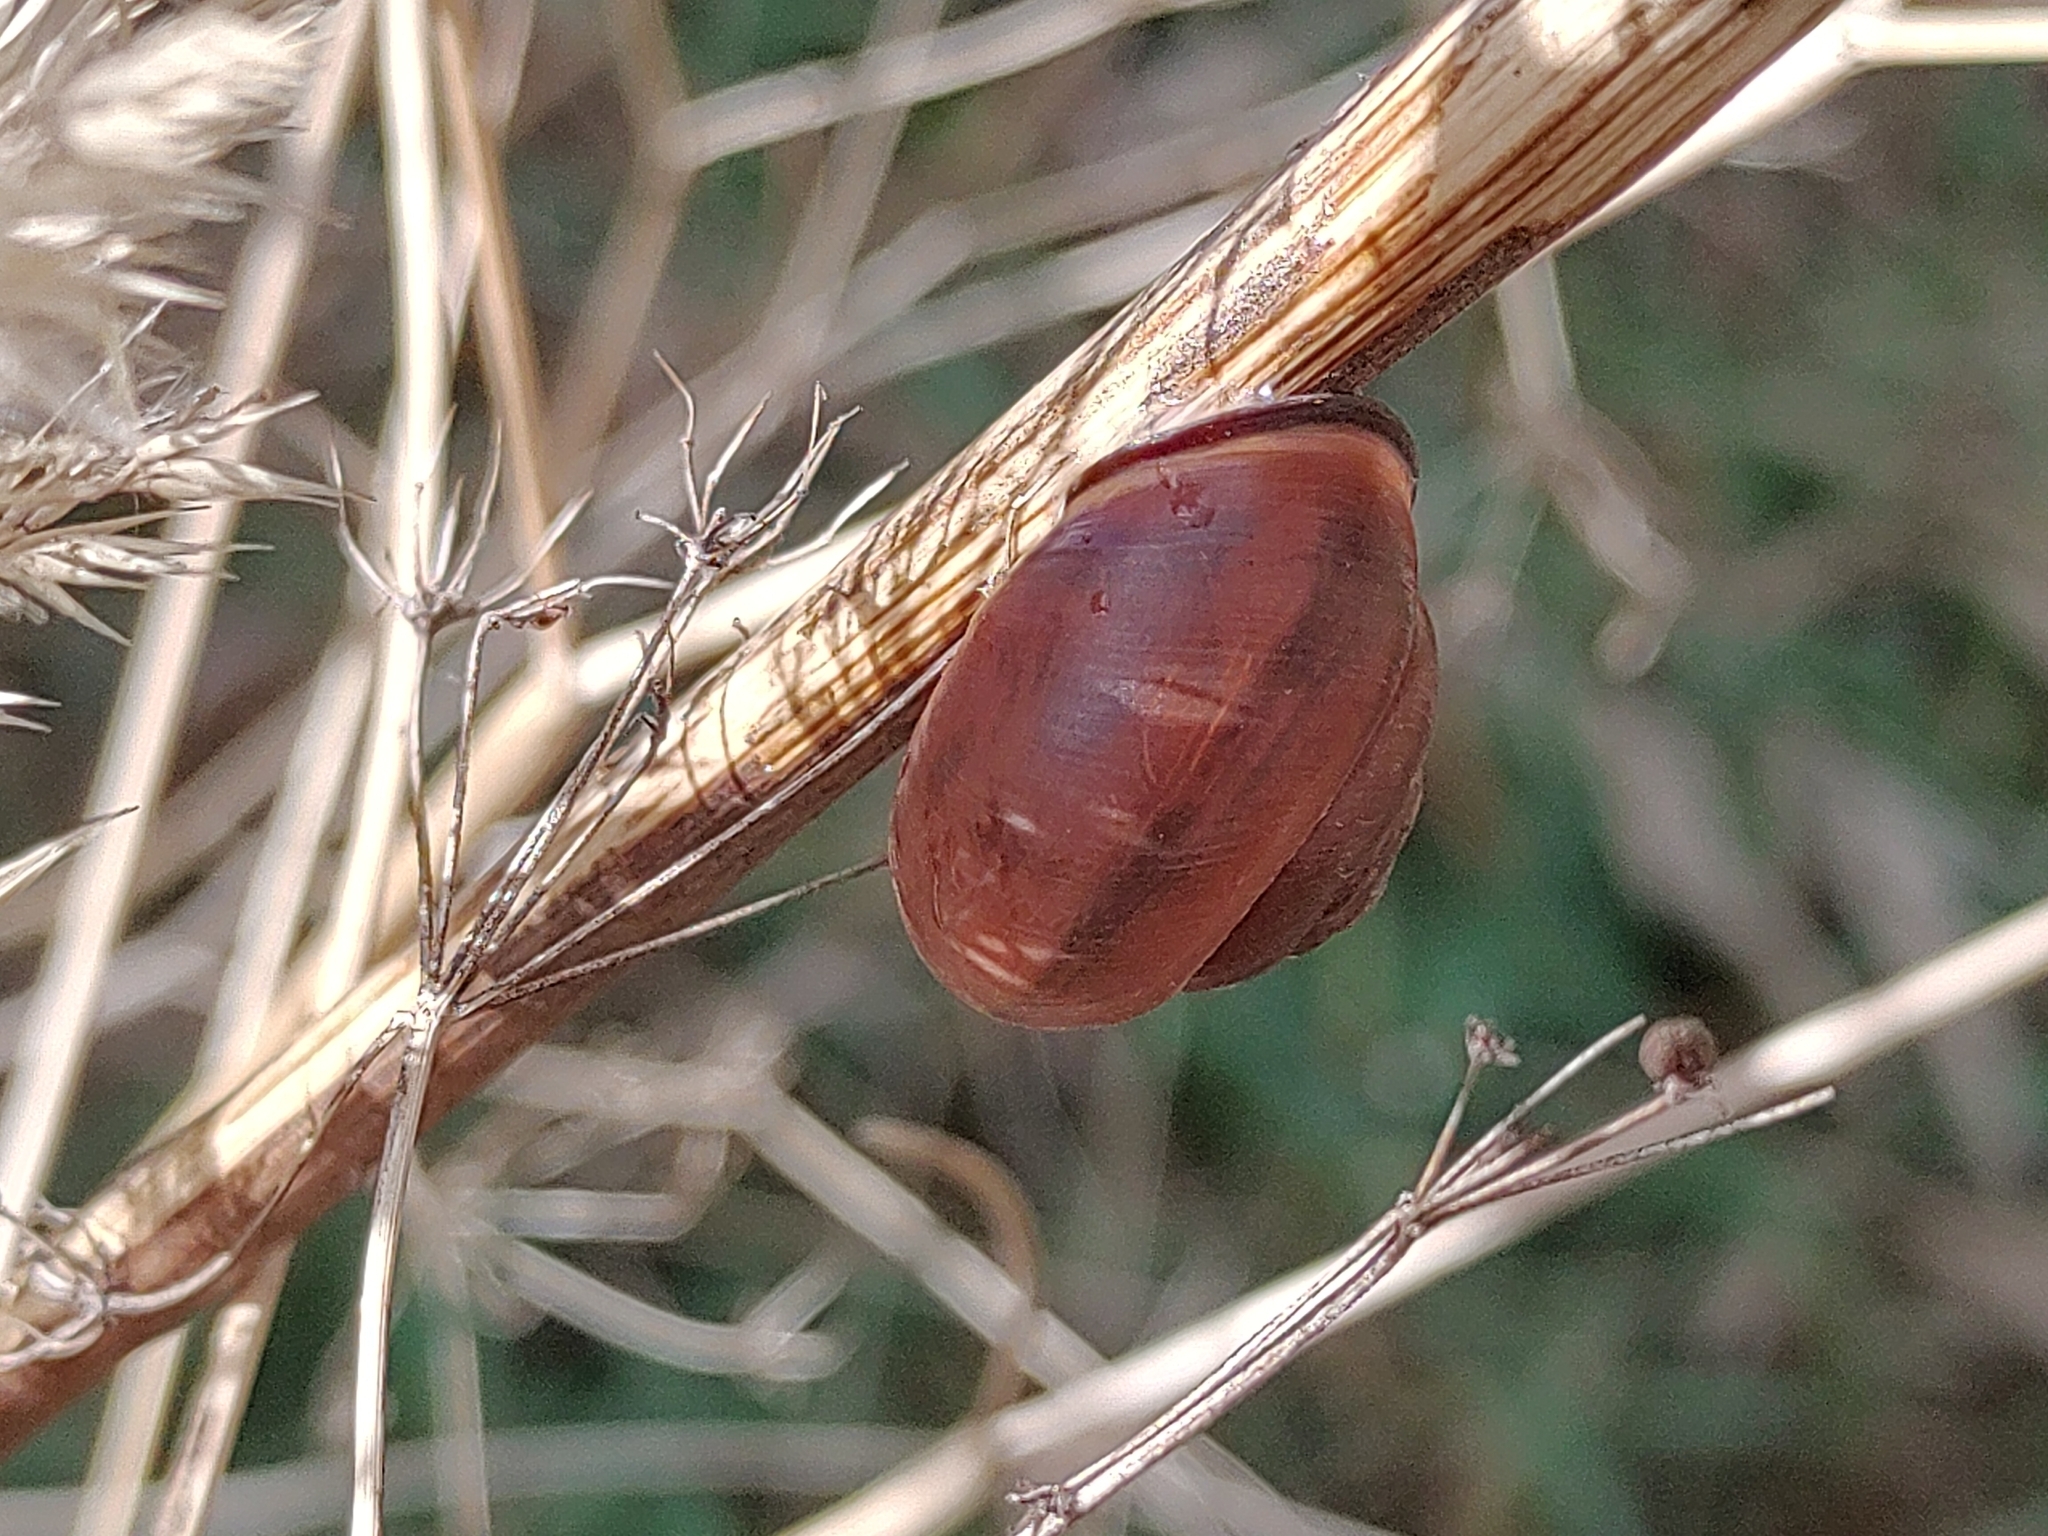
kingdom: Animalia
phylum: Mollusca
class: Gastropoda
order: Stylommatophora
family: Helicidae
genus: Cepaea
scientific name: Cepaea nemoralis
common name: Grovesnail
